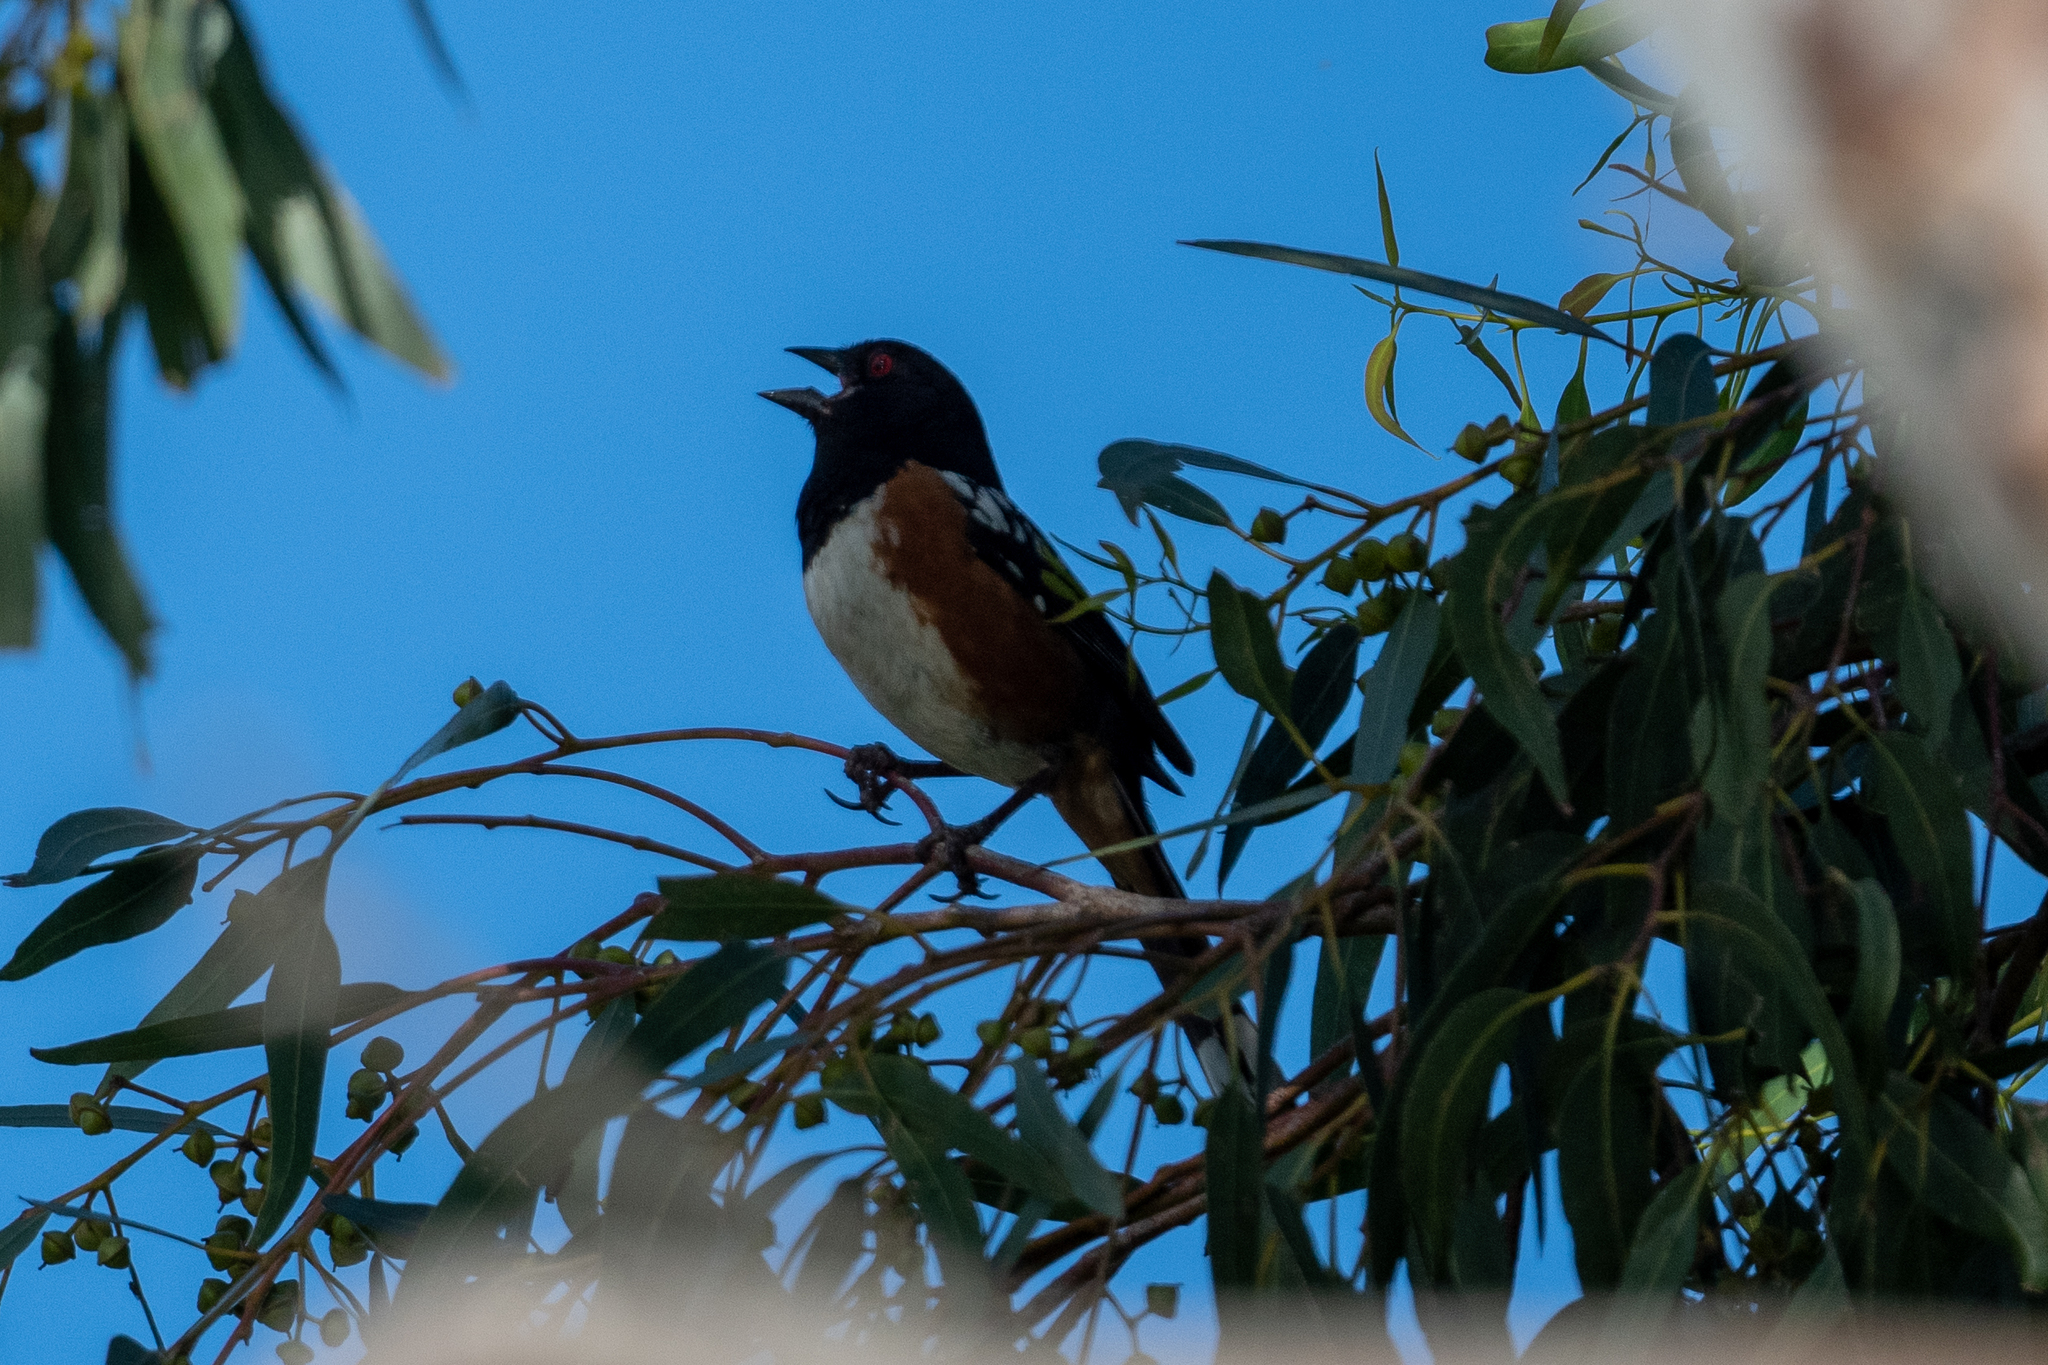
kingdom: Animalia
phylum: Chordata
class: Aves
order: Passeriformes
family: Passerellidae
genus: Pipilo
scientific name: Pipilo maculatus
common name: Spotted towhee
